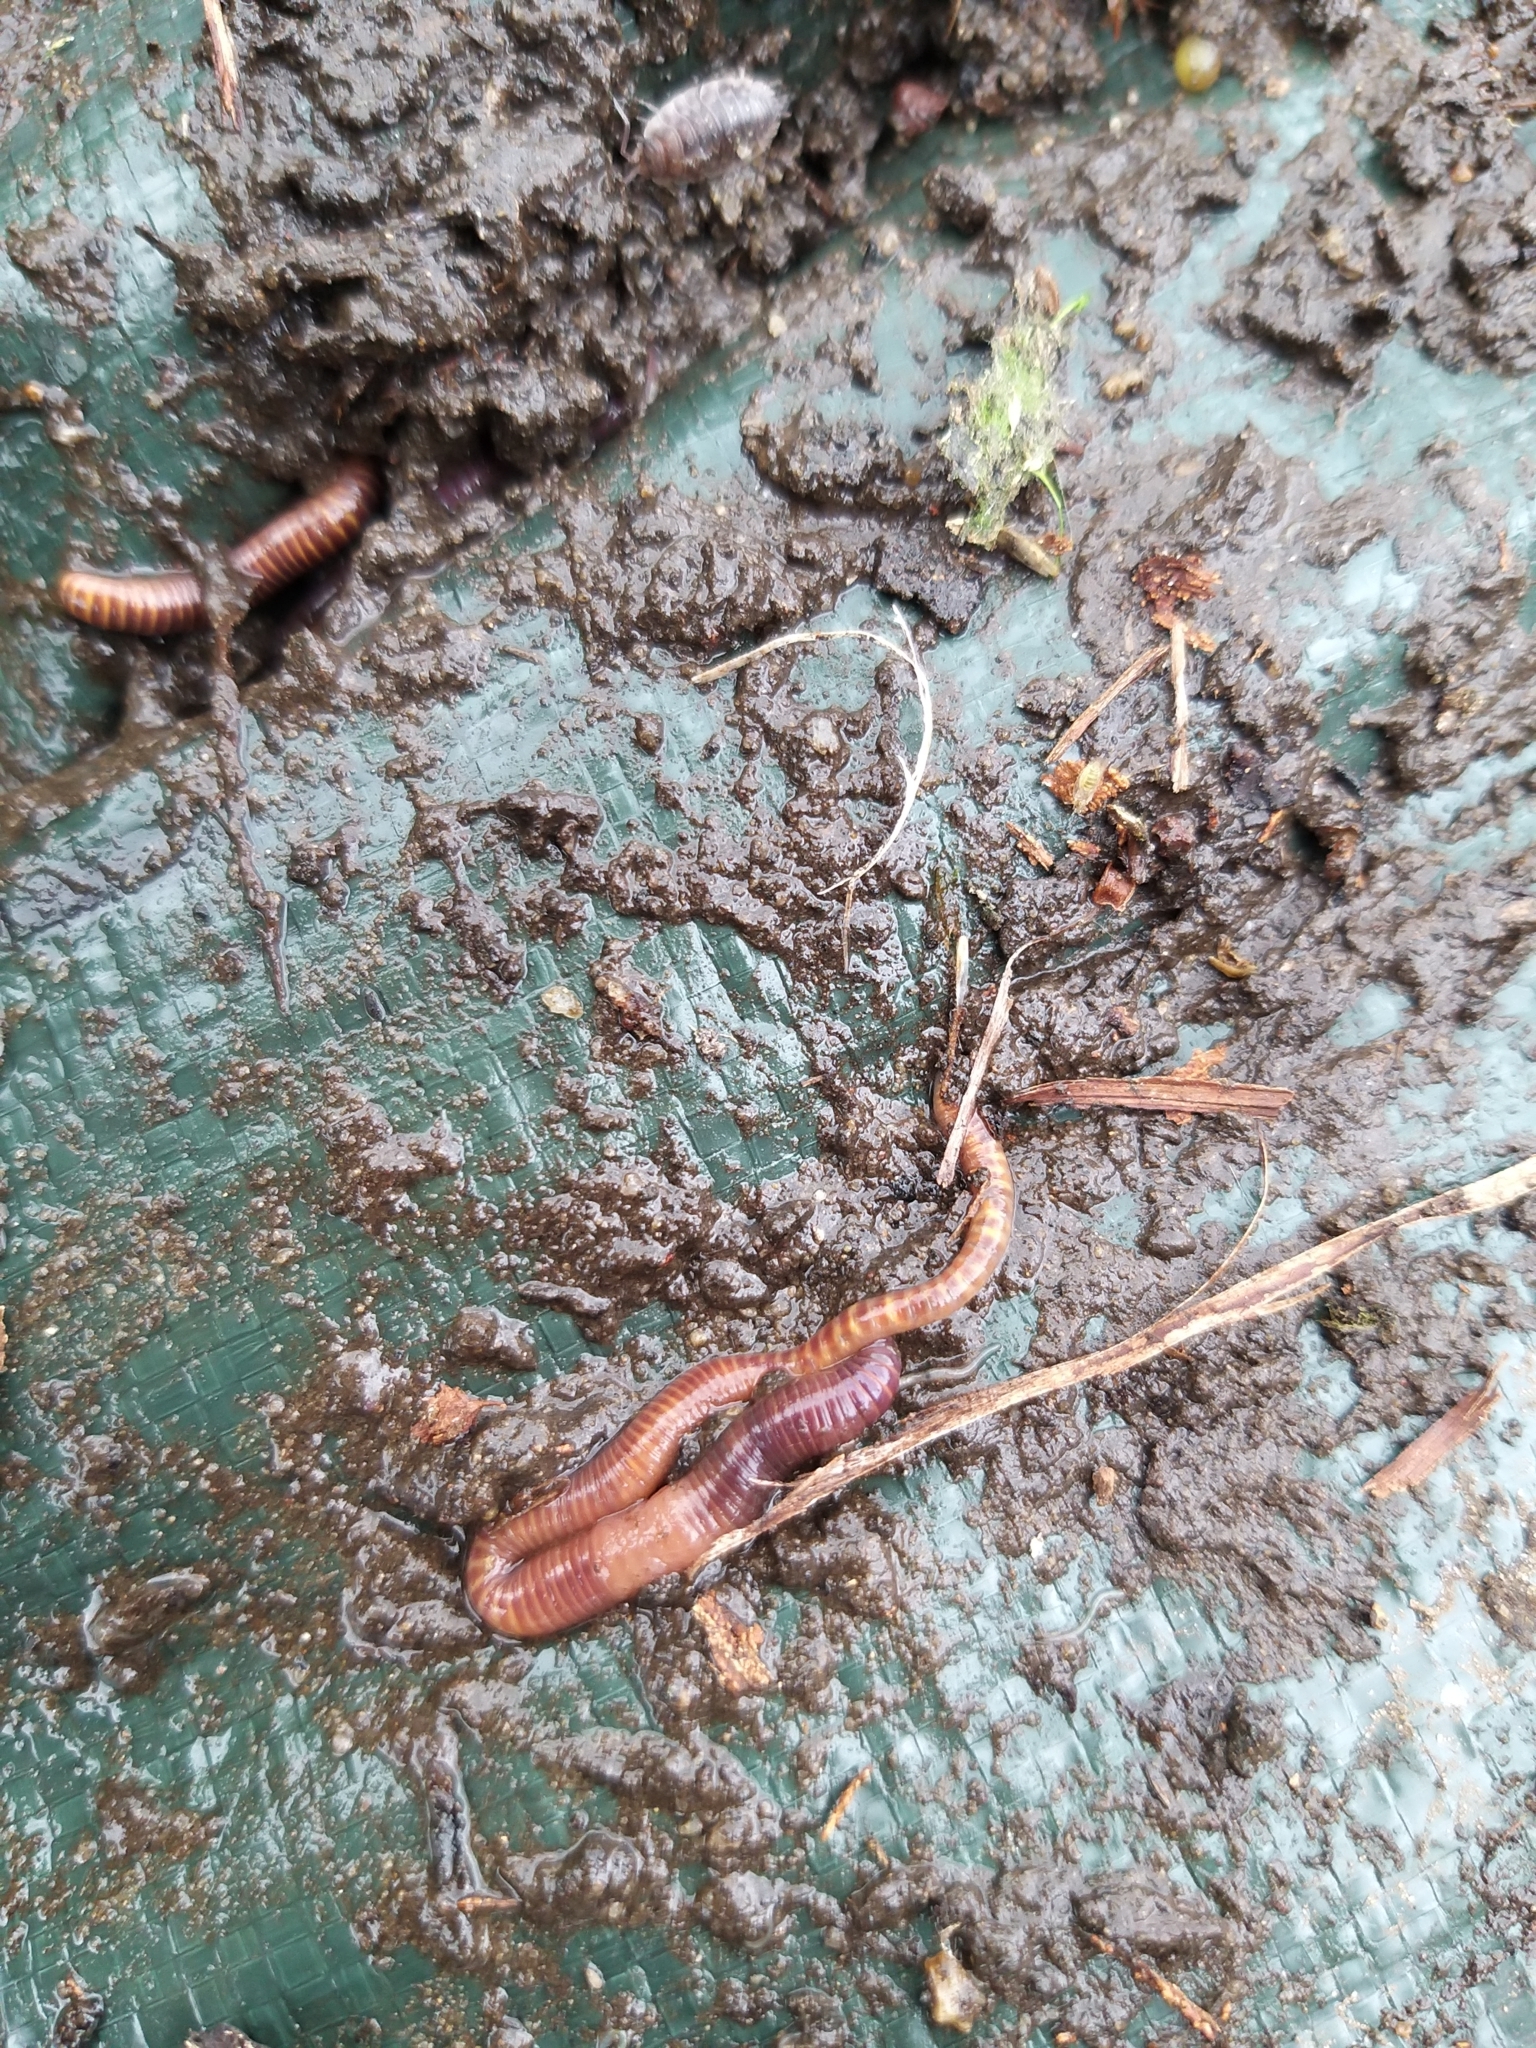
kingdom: Animalia
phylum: Annelida
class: Clitellata
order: Crassiclitellata
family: Lumbricidae
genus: Eisenia
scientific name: Eisenia fetida
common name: Red wiggler
